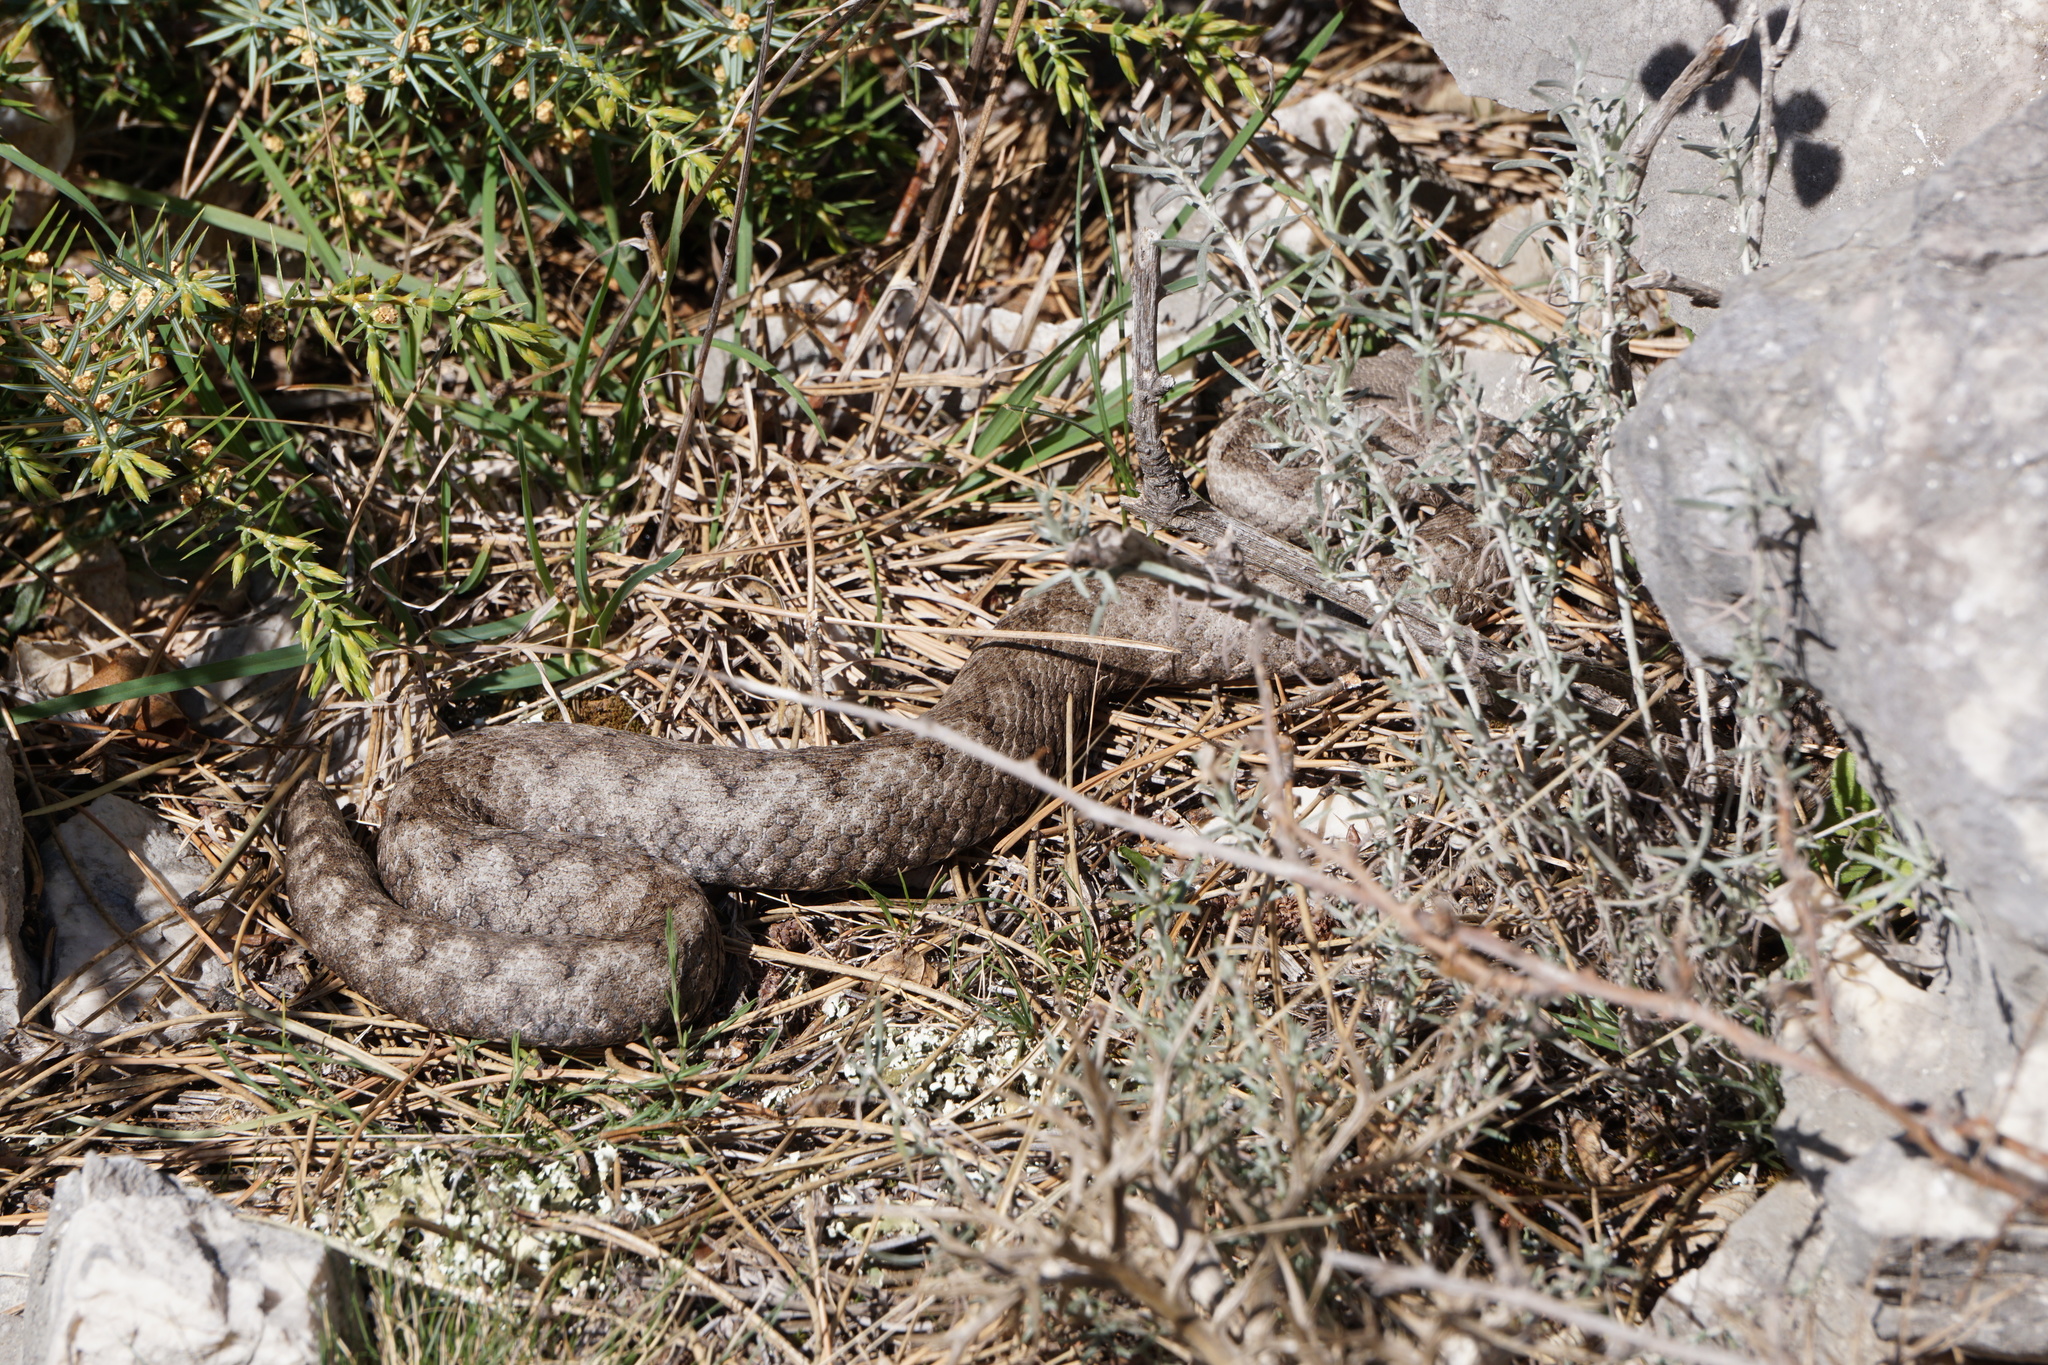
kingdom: Animalia
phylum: Chordata
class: Squamata
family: Viperidae
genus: Vipera
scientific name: Vipera ammodytes
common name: Sand viper
